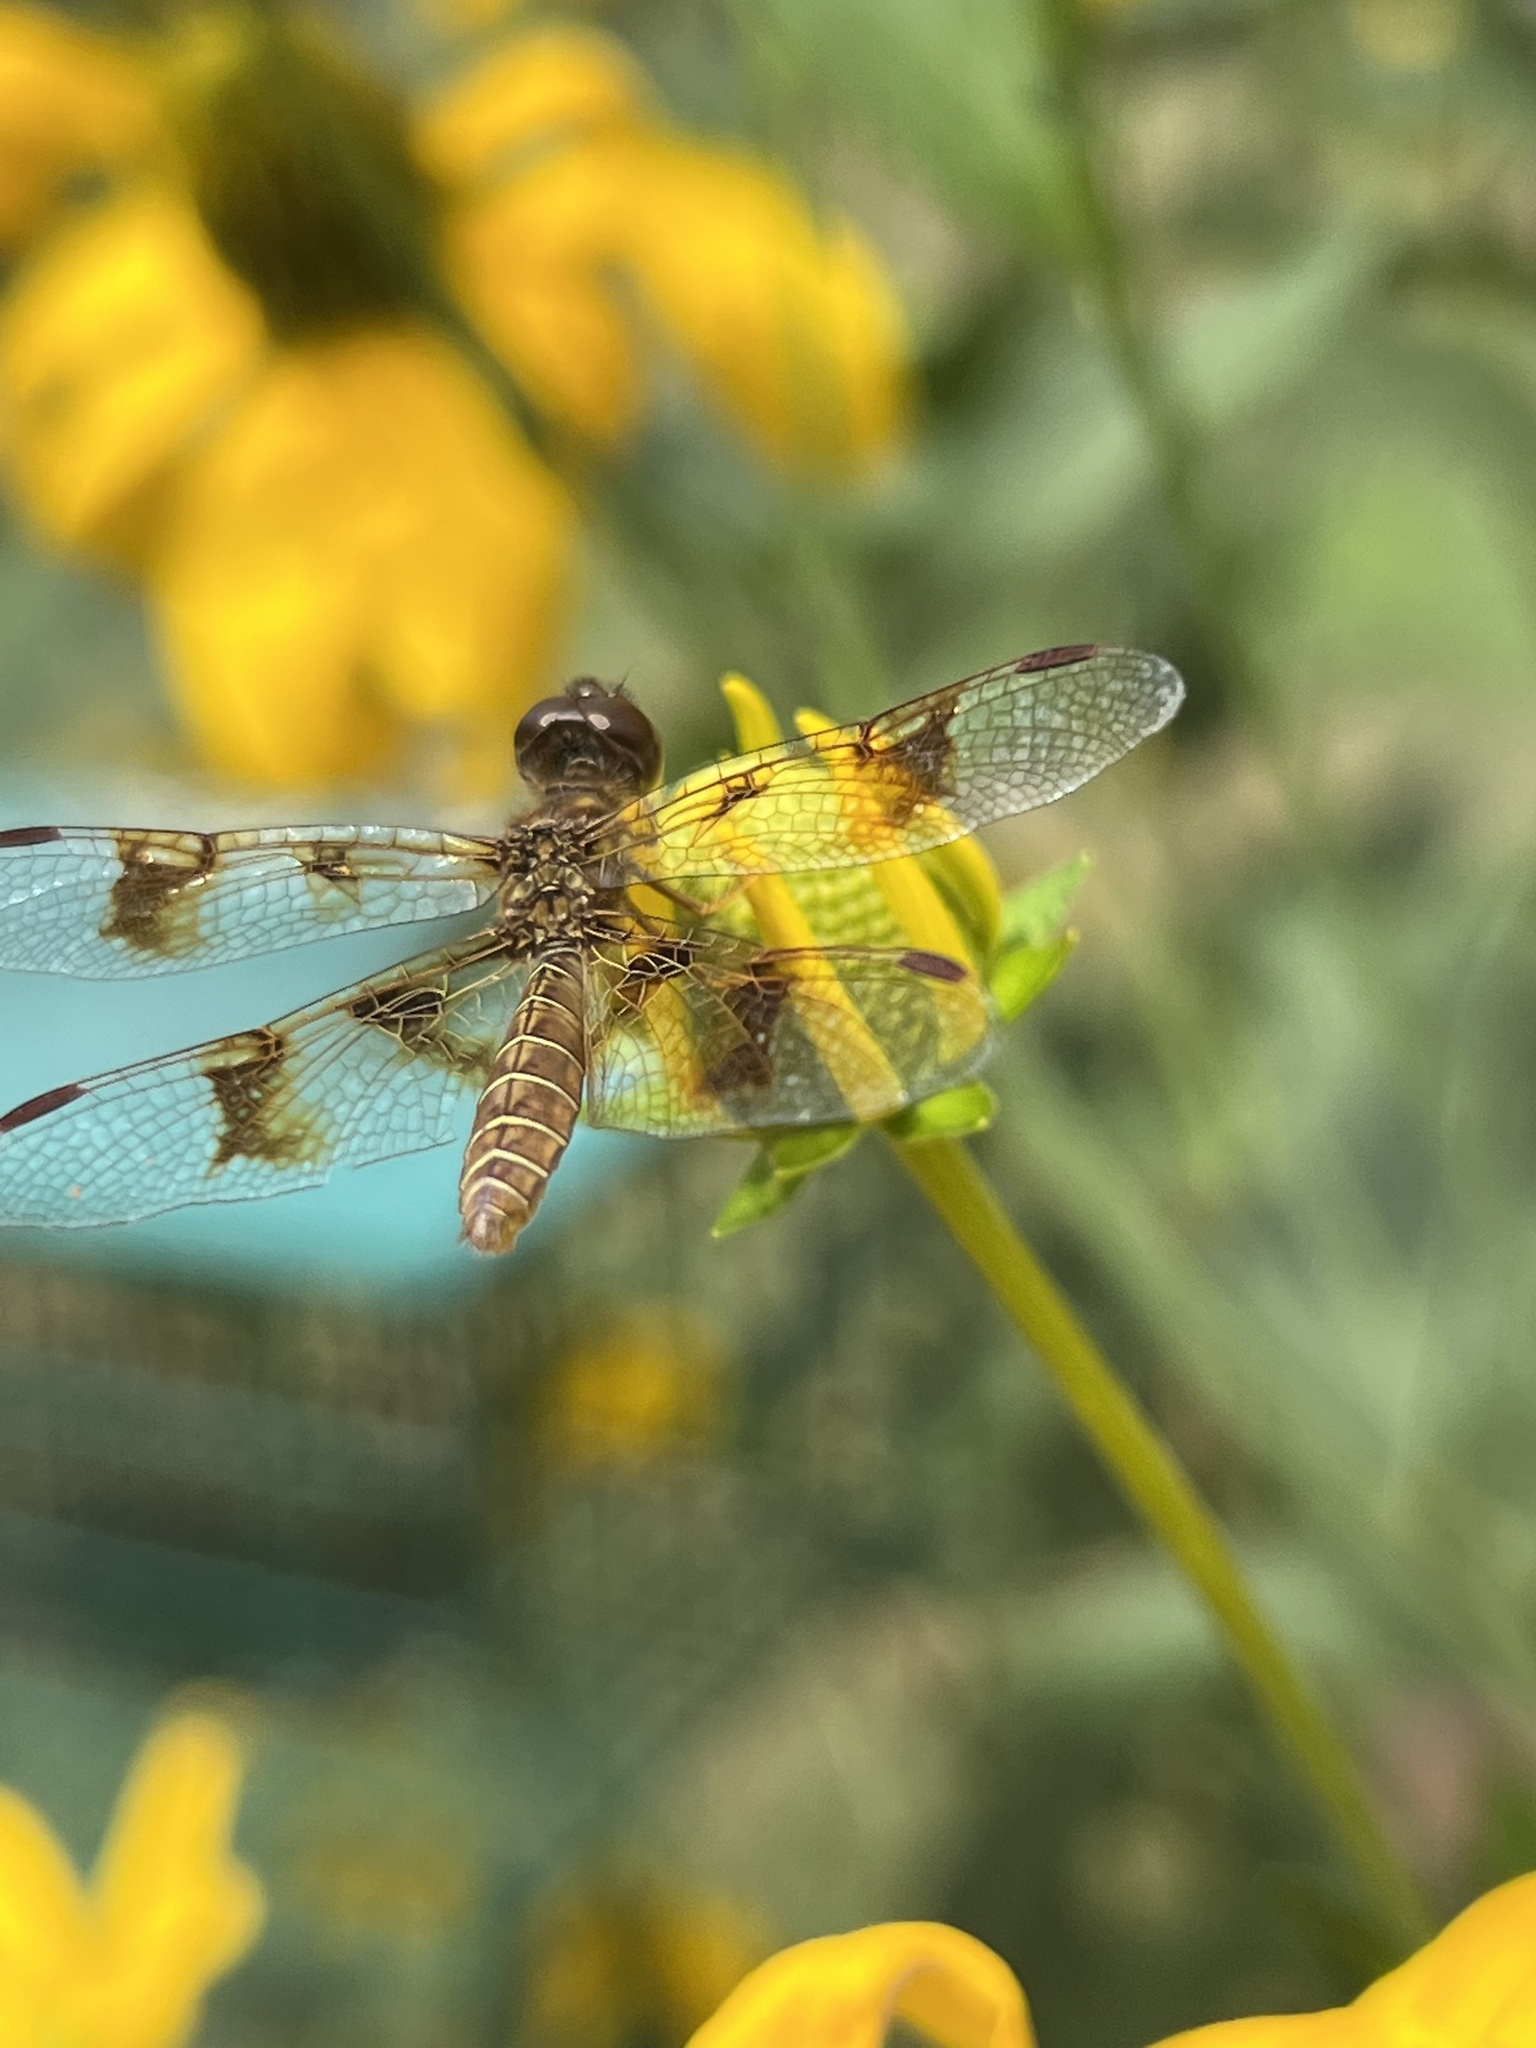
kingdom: Animalia
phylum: Arthropoda
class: Insecta
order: Odonata
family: Libellulidae
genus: Perithemis
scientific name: Perithemis tenera
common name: Eastern amberwing
